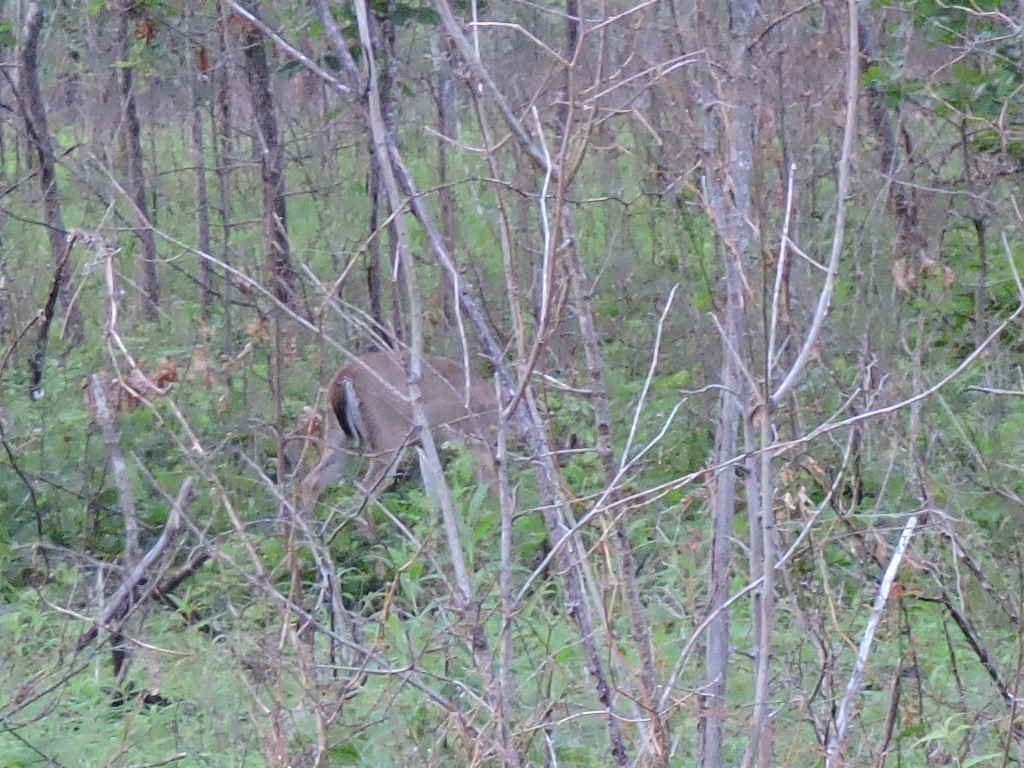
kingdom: Animalia
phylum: Chordata
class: Mammalia
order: Artiodactyla
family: Cervidae
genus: Odocoileus
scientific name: Odocoileus virginianus
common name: White-tailed deer
